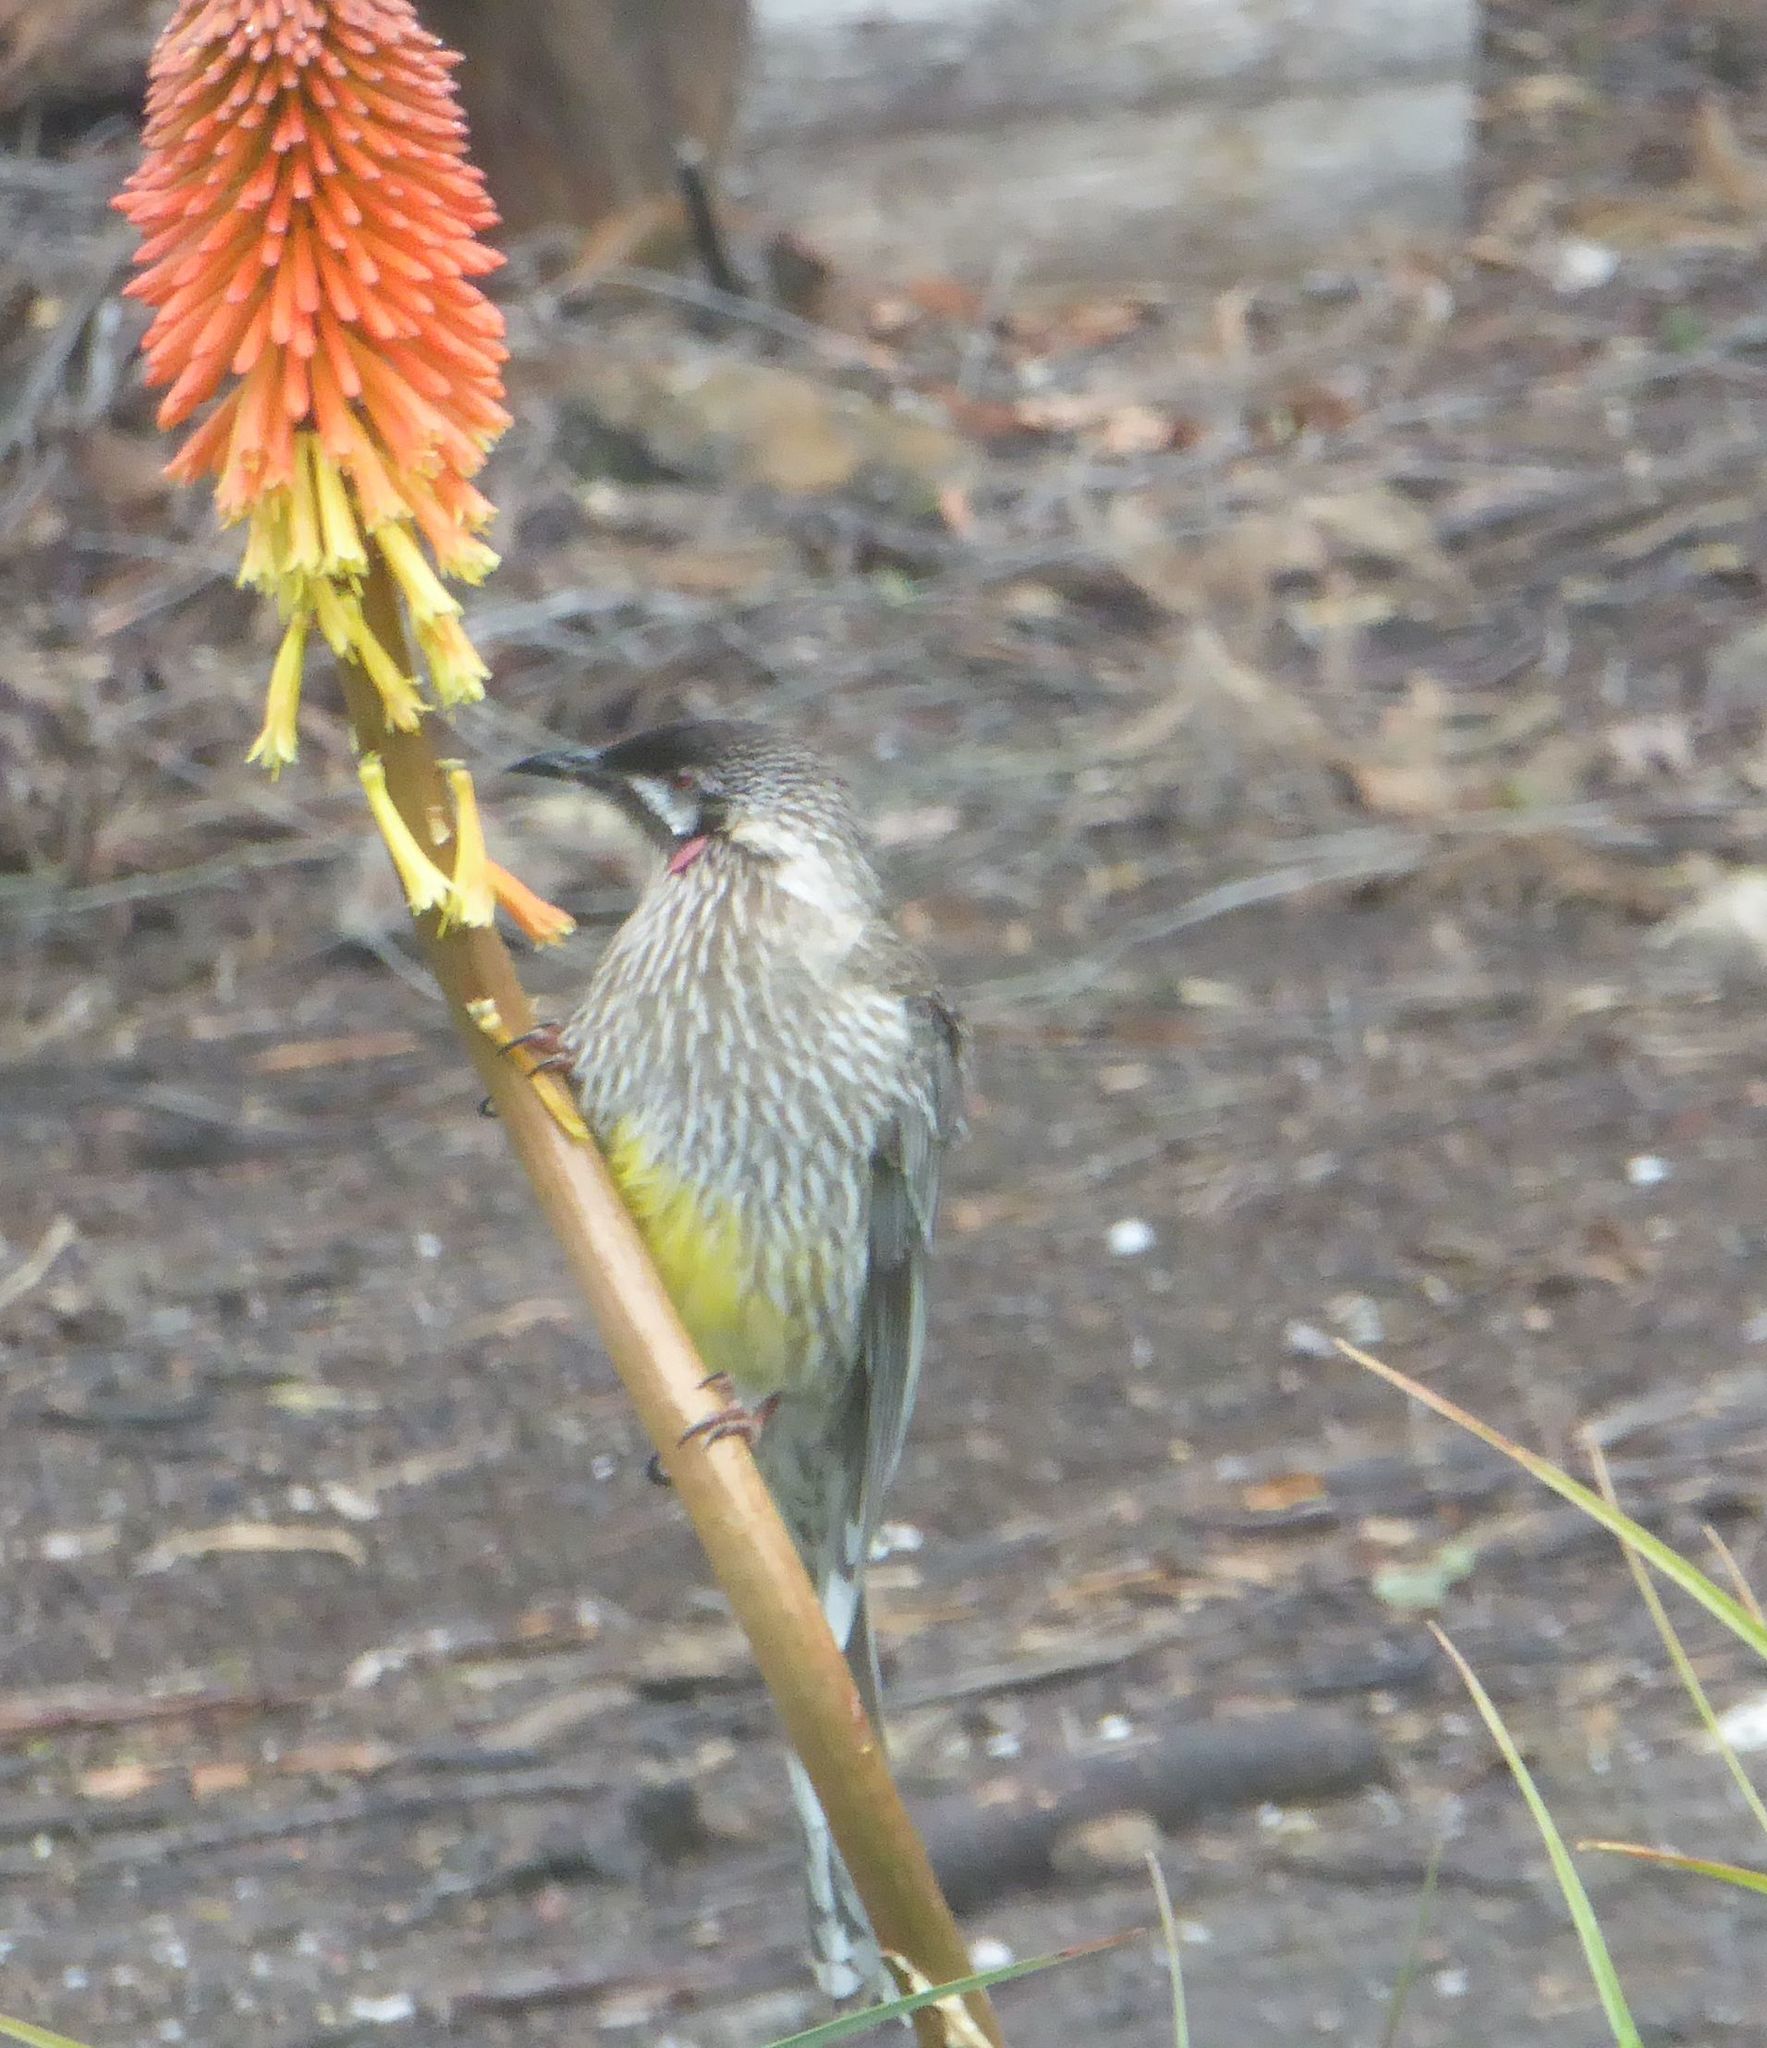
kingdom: Animalia
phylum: Chordata
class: Aves
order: Passeriformes
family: Meliphagidae
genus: Anthochaera
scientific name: Anthochaera carunculata
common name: Red wattlebird
